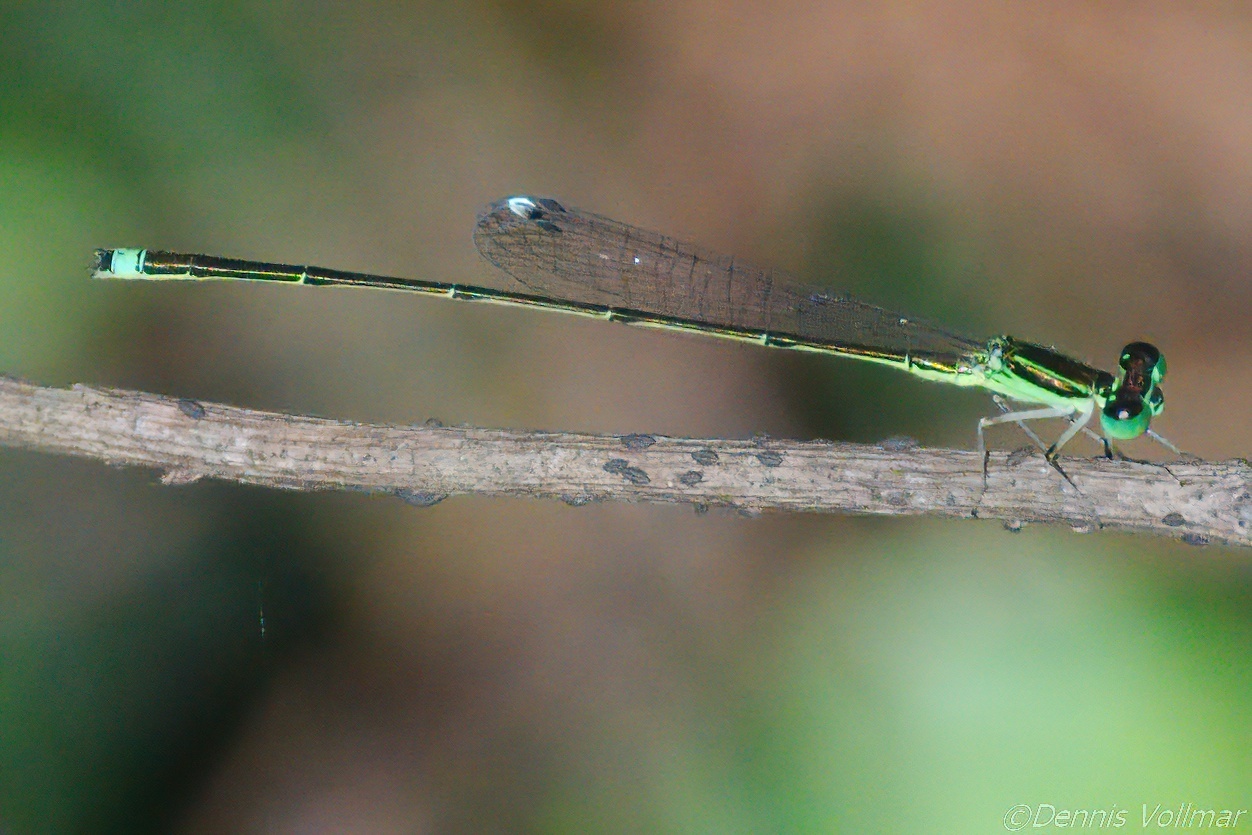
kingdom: Animalia
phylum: Arthropoda
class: Insecta
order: Odonata
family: Coenagrionidae
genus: Ischnura
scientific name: Ischnura prognata
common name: Furtive forktail
